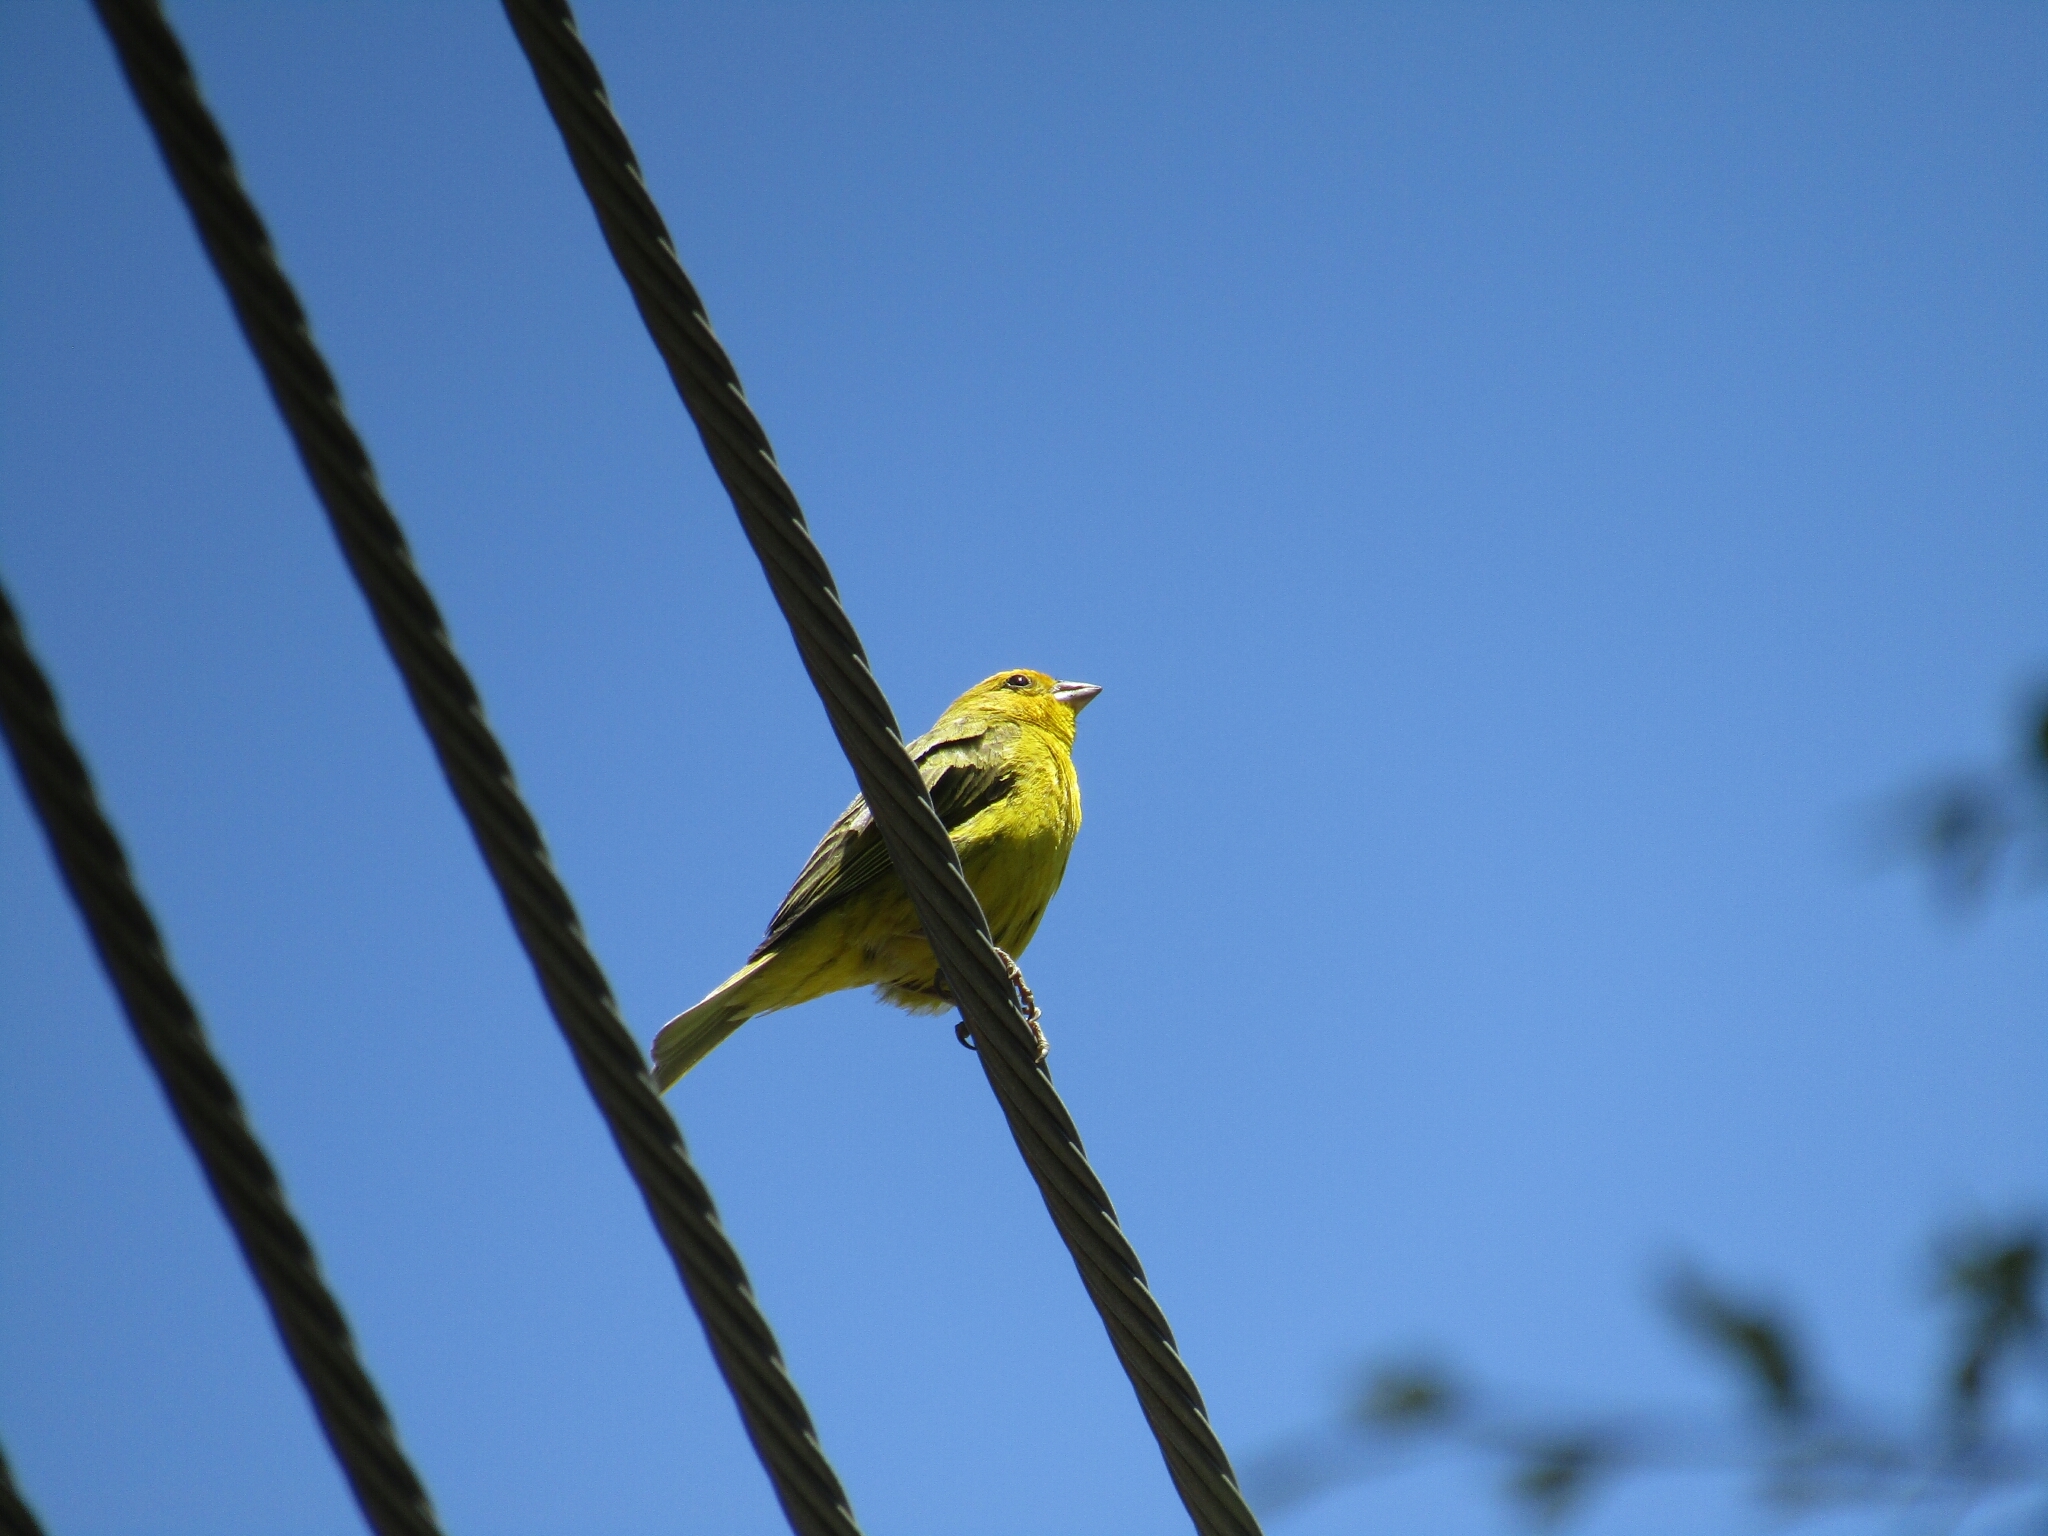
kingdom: Animalia
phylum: Chordata
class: Aves
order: Passeriformes
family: Thraupidae
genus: Sicalis
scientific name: Sicalis flaveola
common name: Saffron finch
